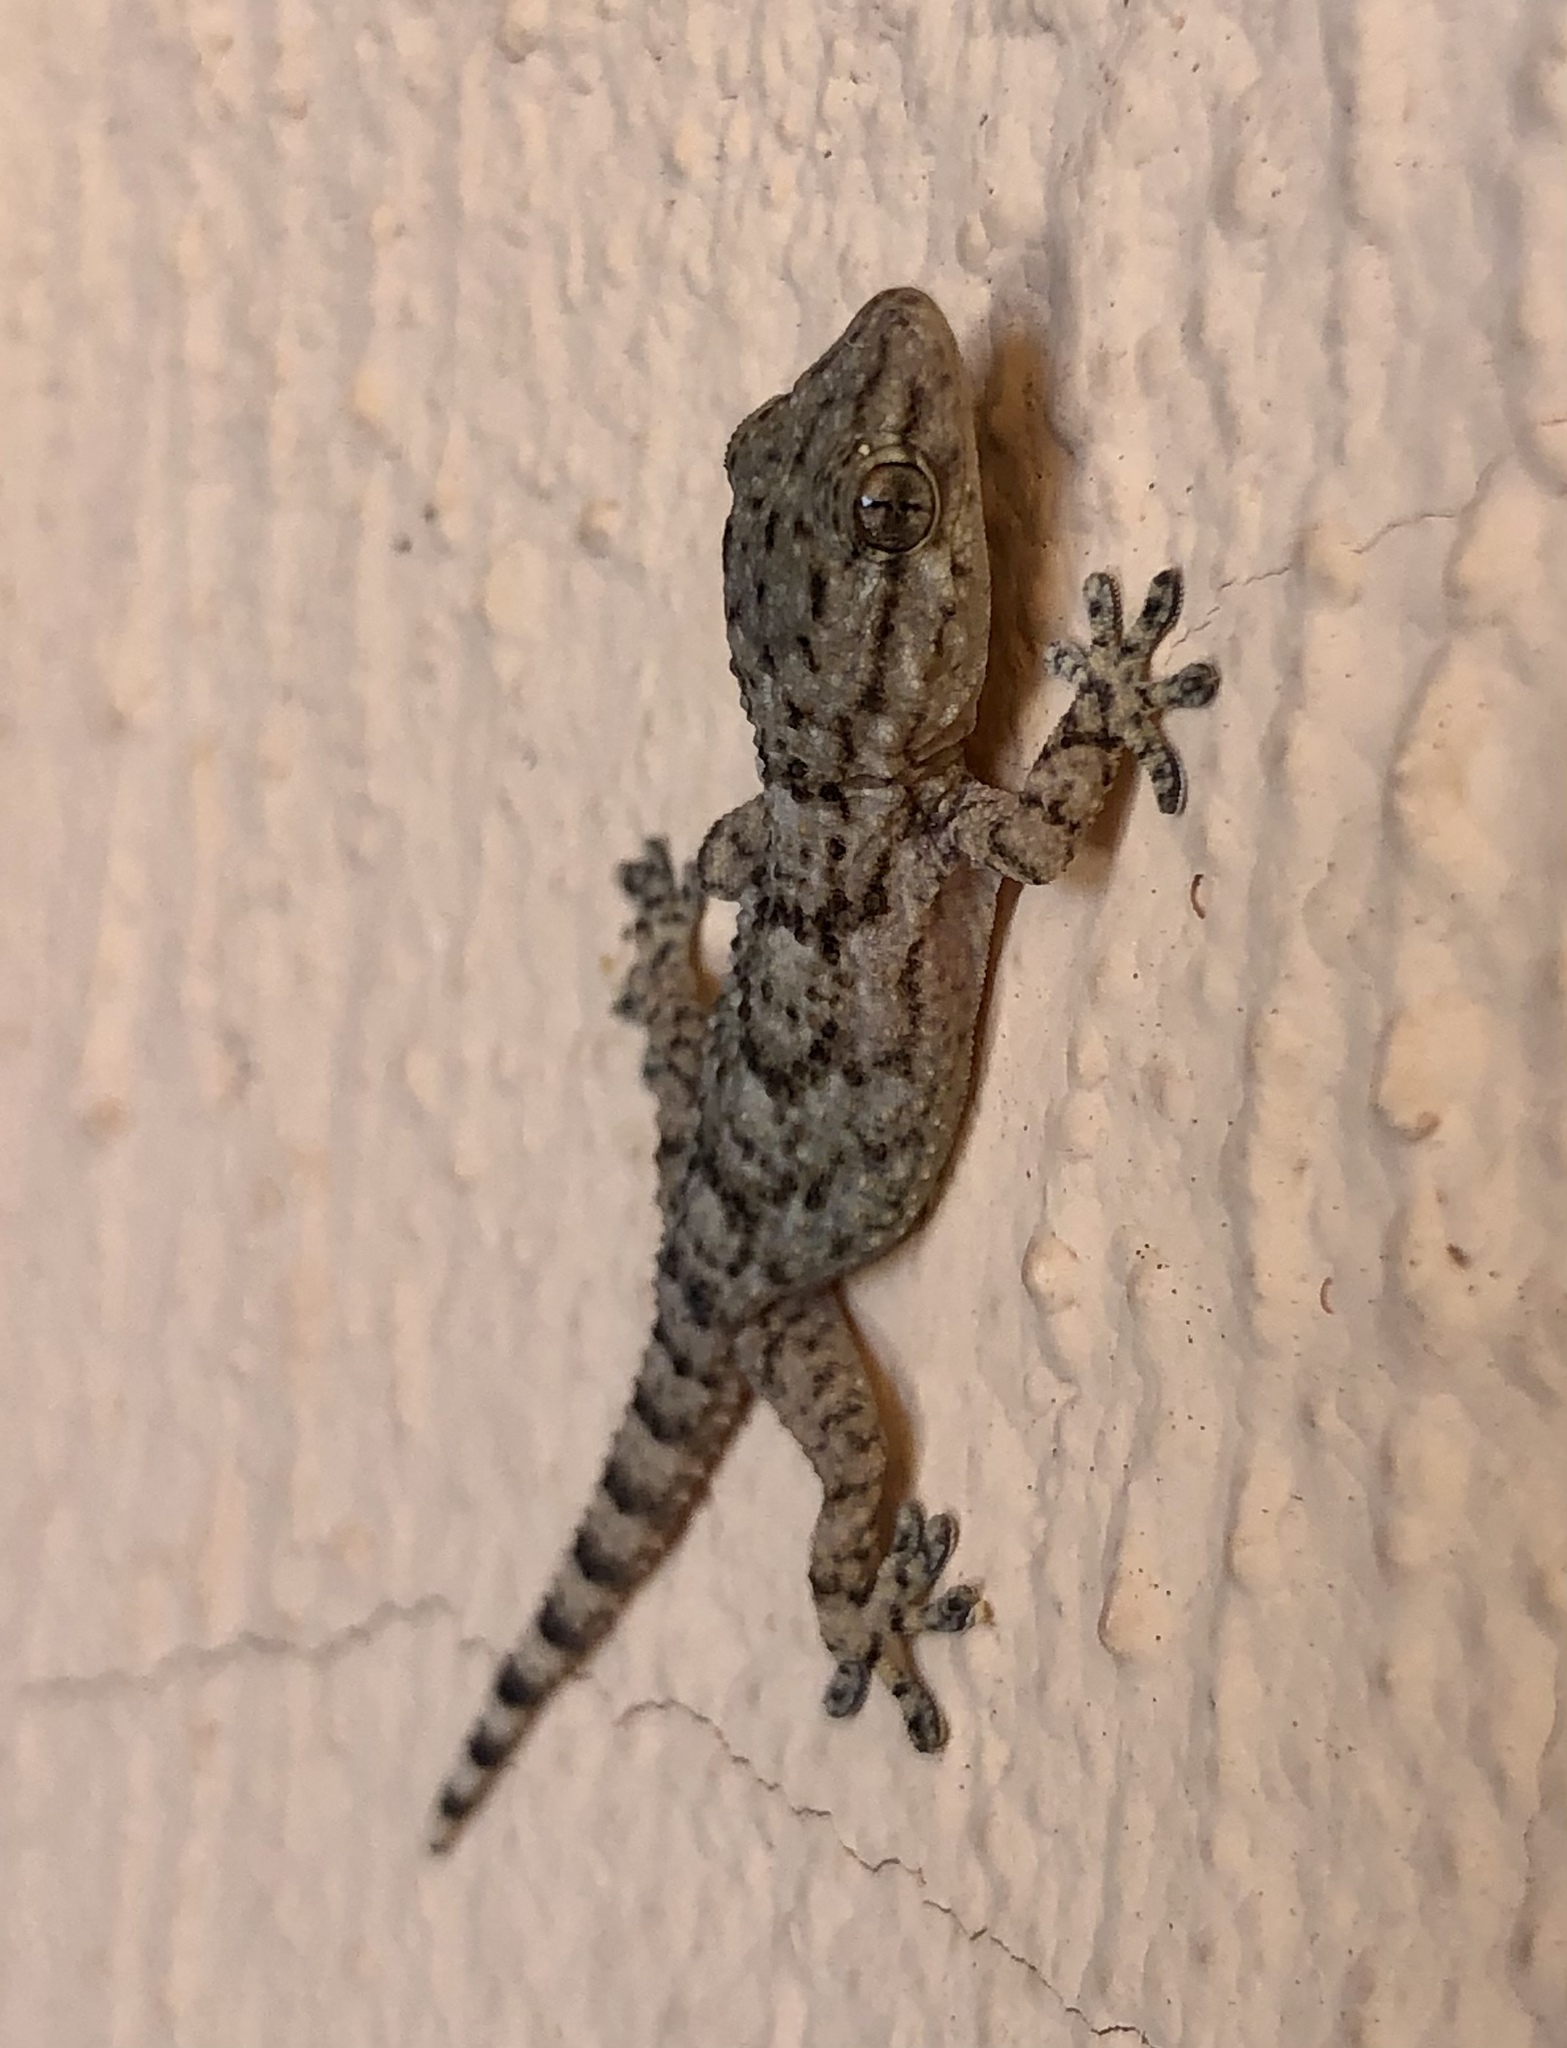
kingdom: Animalia
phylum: Chordata
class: Squamata
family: Phyllodactylidae
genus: Tarentola
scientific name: Tarentola mauritanica
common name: Moorish gecko
